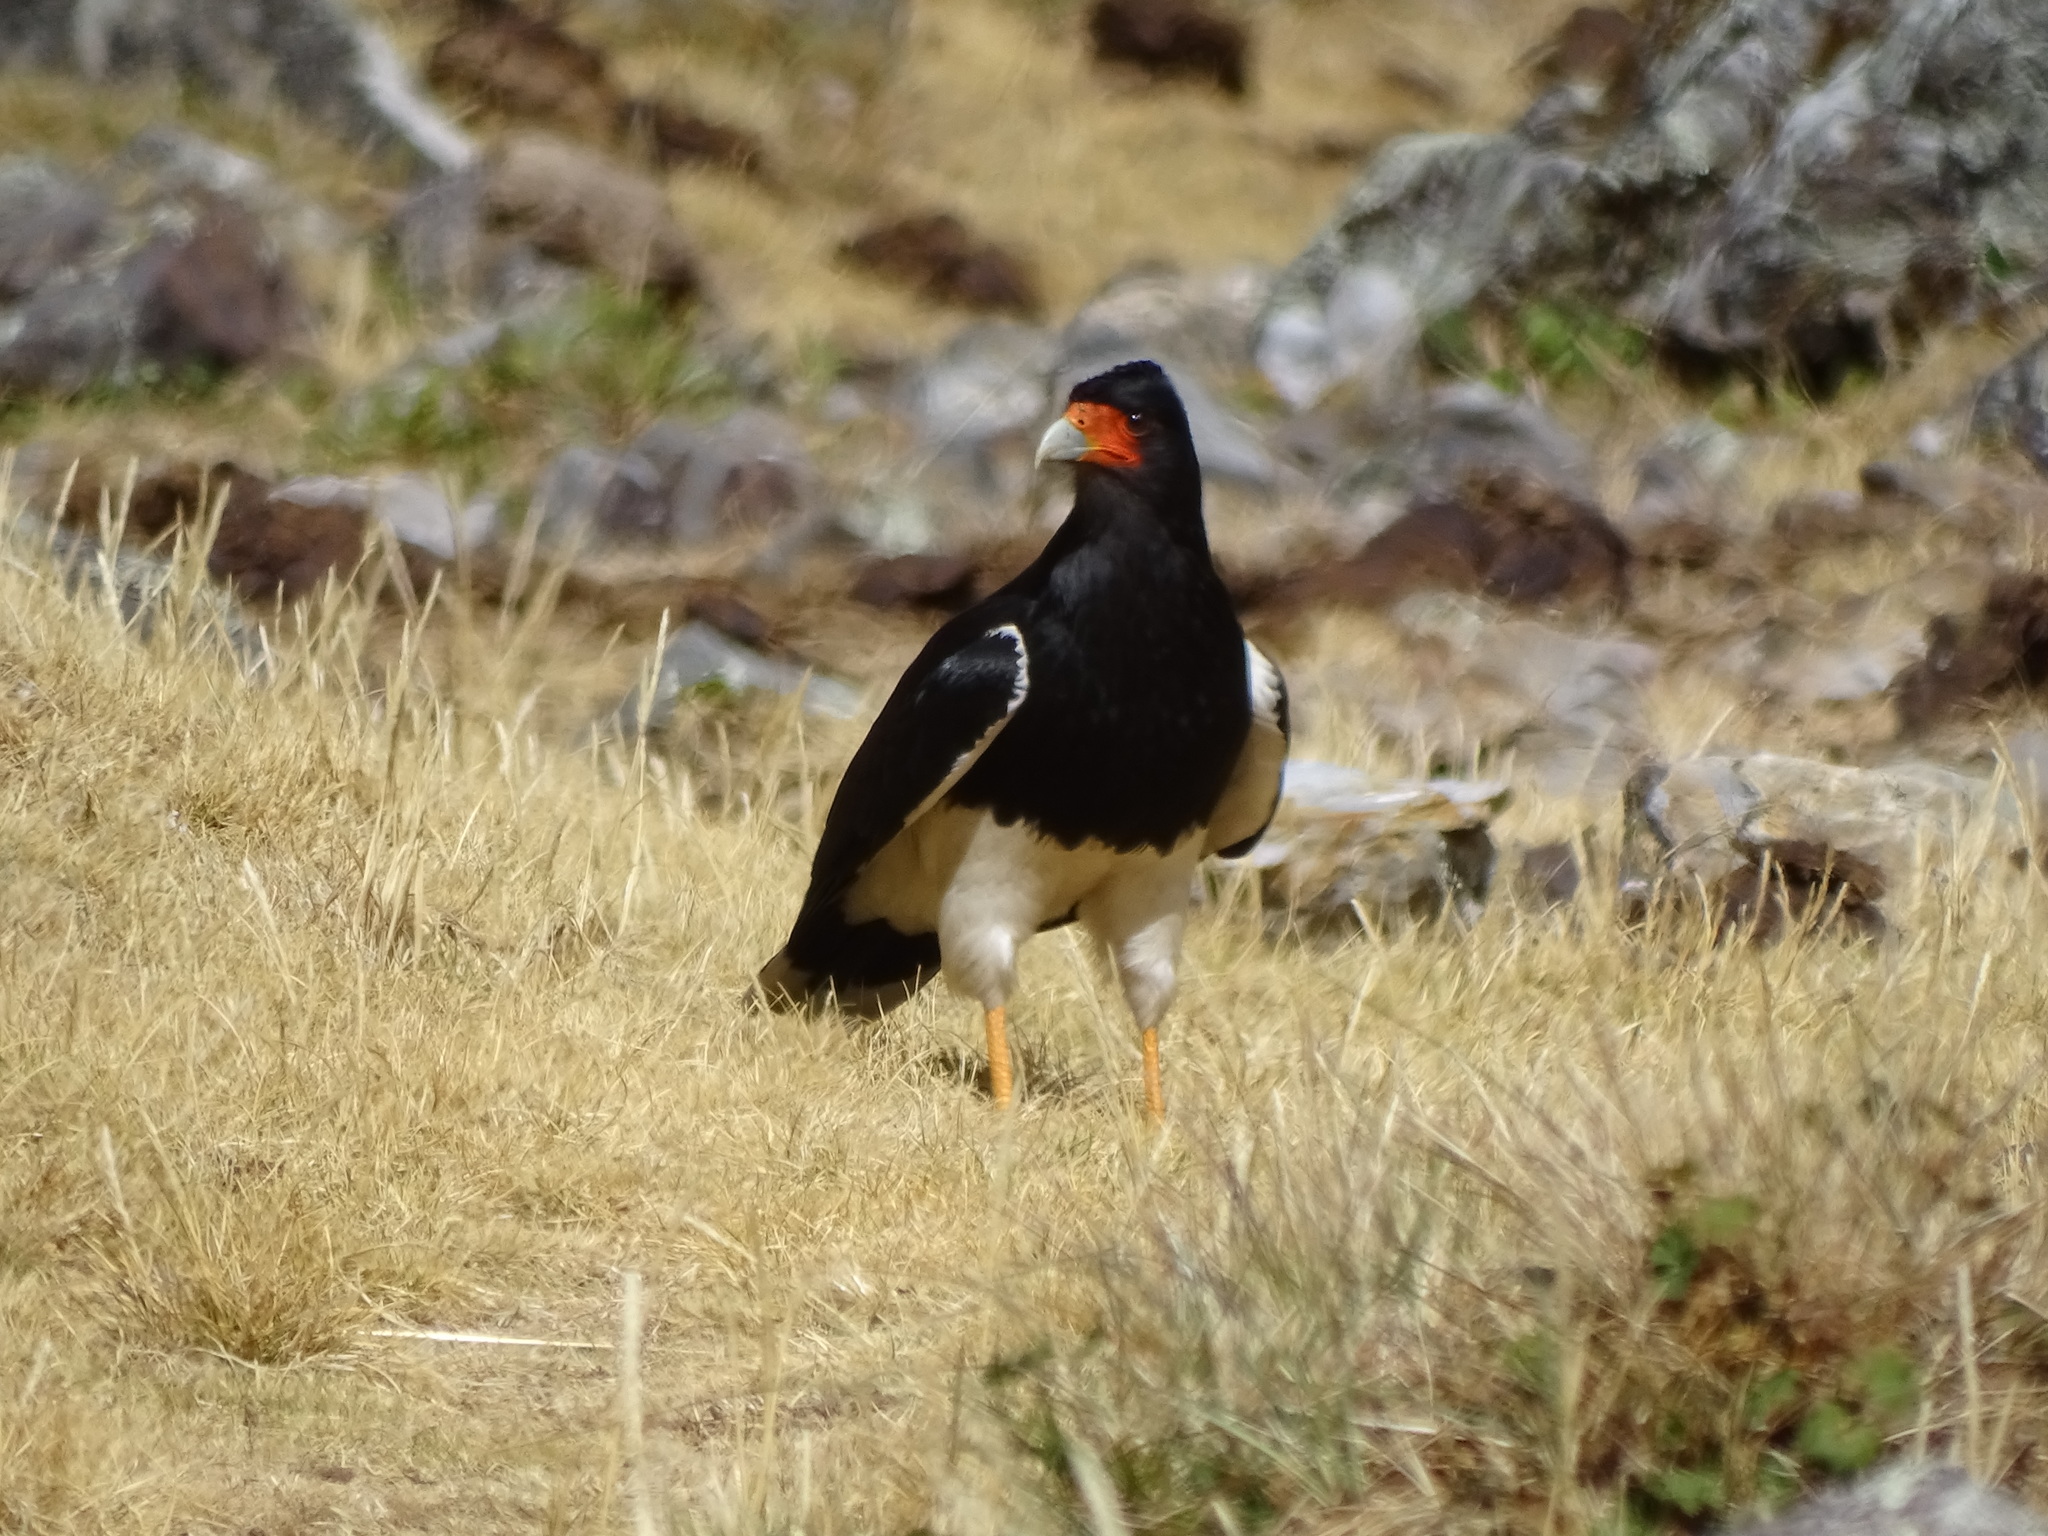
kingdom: Animalia
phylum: Chordata
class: Aves
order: Falconiformes
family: Falconidae
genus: Daptrius
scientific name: Daptrius
